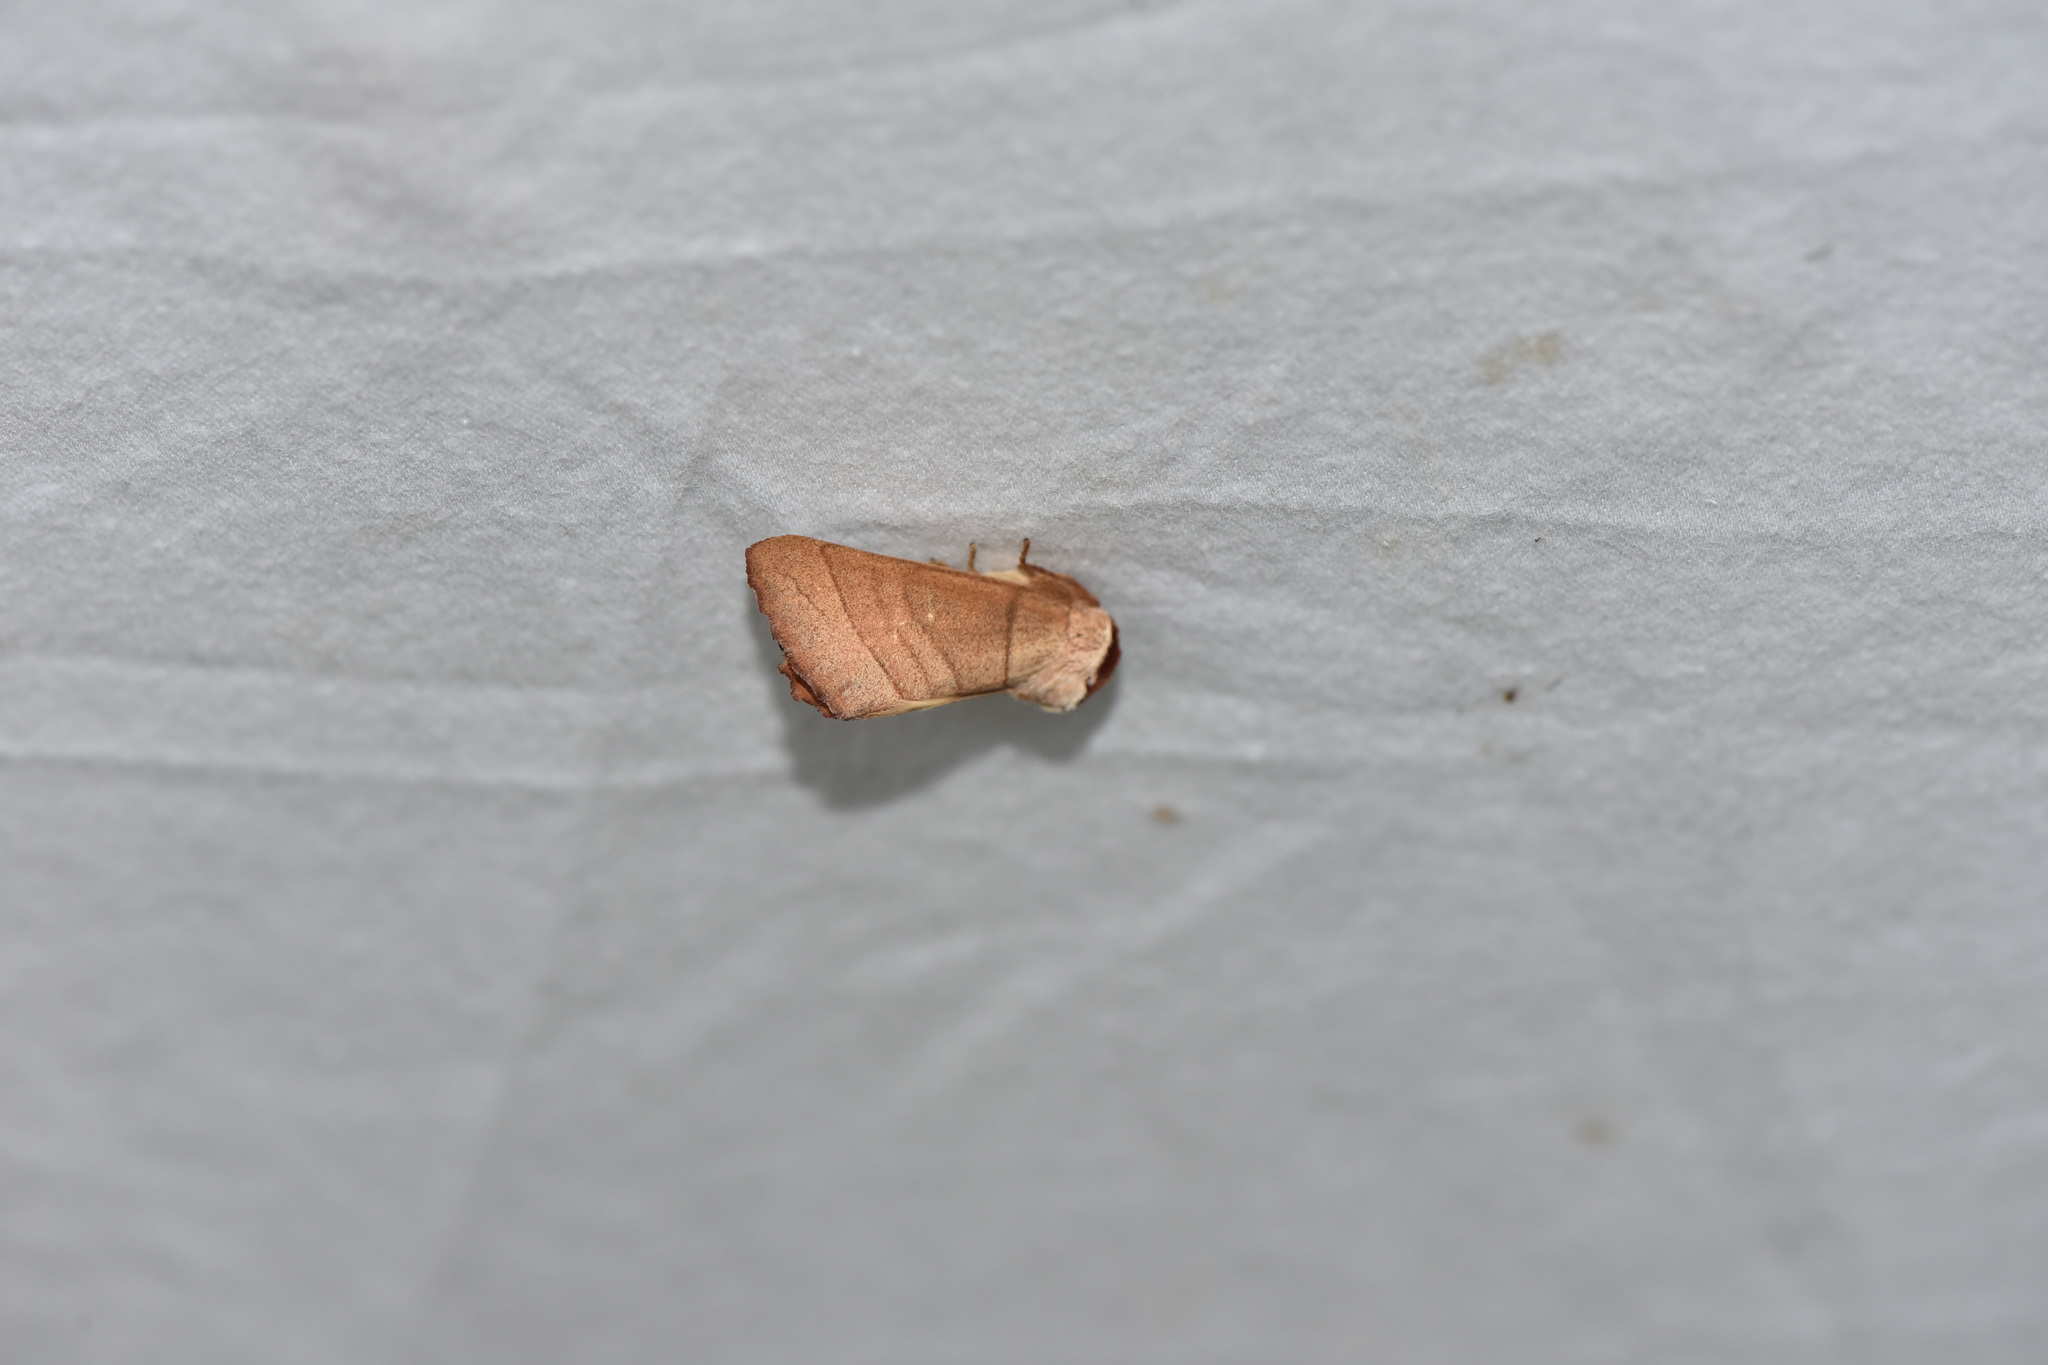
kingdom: Animalia
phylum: Arthropoda
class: Insecta
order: Lepidoptera
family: Notodontidae
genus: Datana
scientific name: Datana
